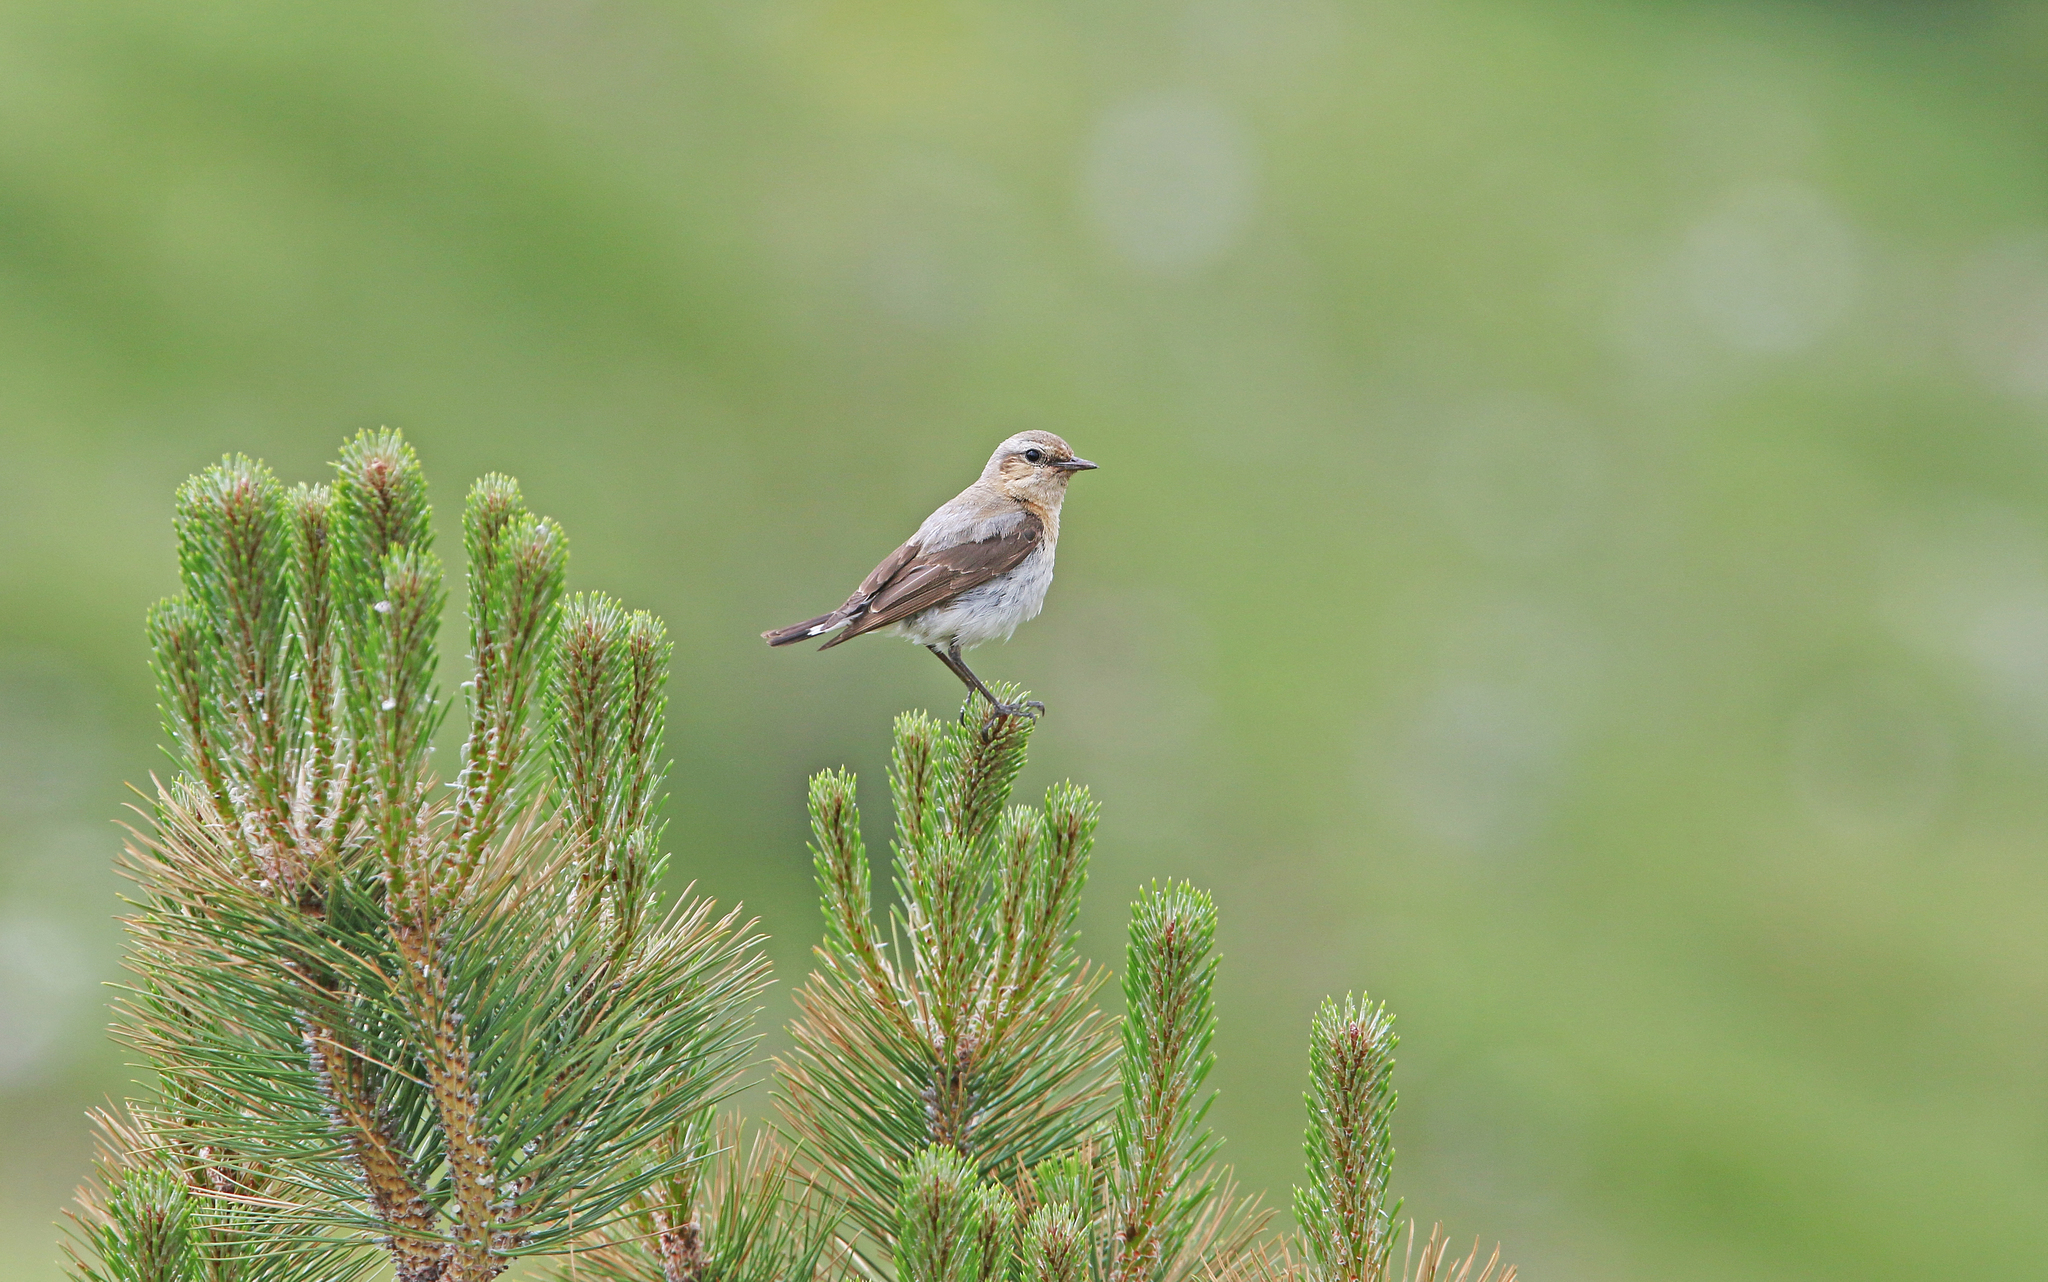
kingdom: Animalia
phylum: Chordata
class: Aves
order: Passeriformes
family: Muscicapidae
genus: Oenanthe
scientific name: Oenanthe oenanthe
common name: Northern wheatear
